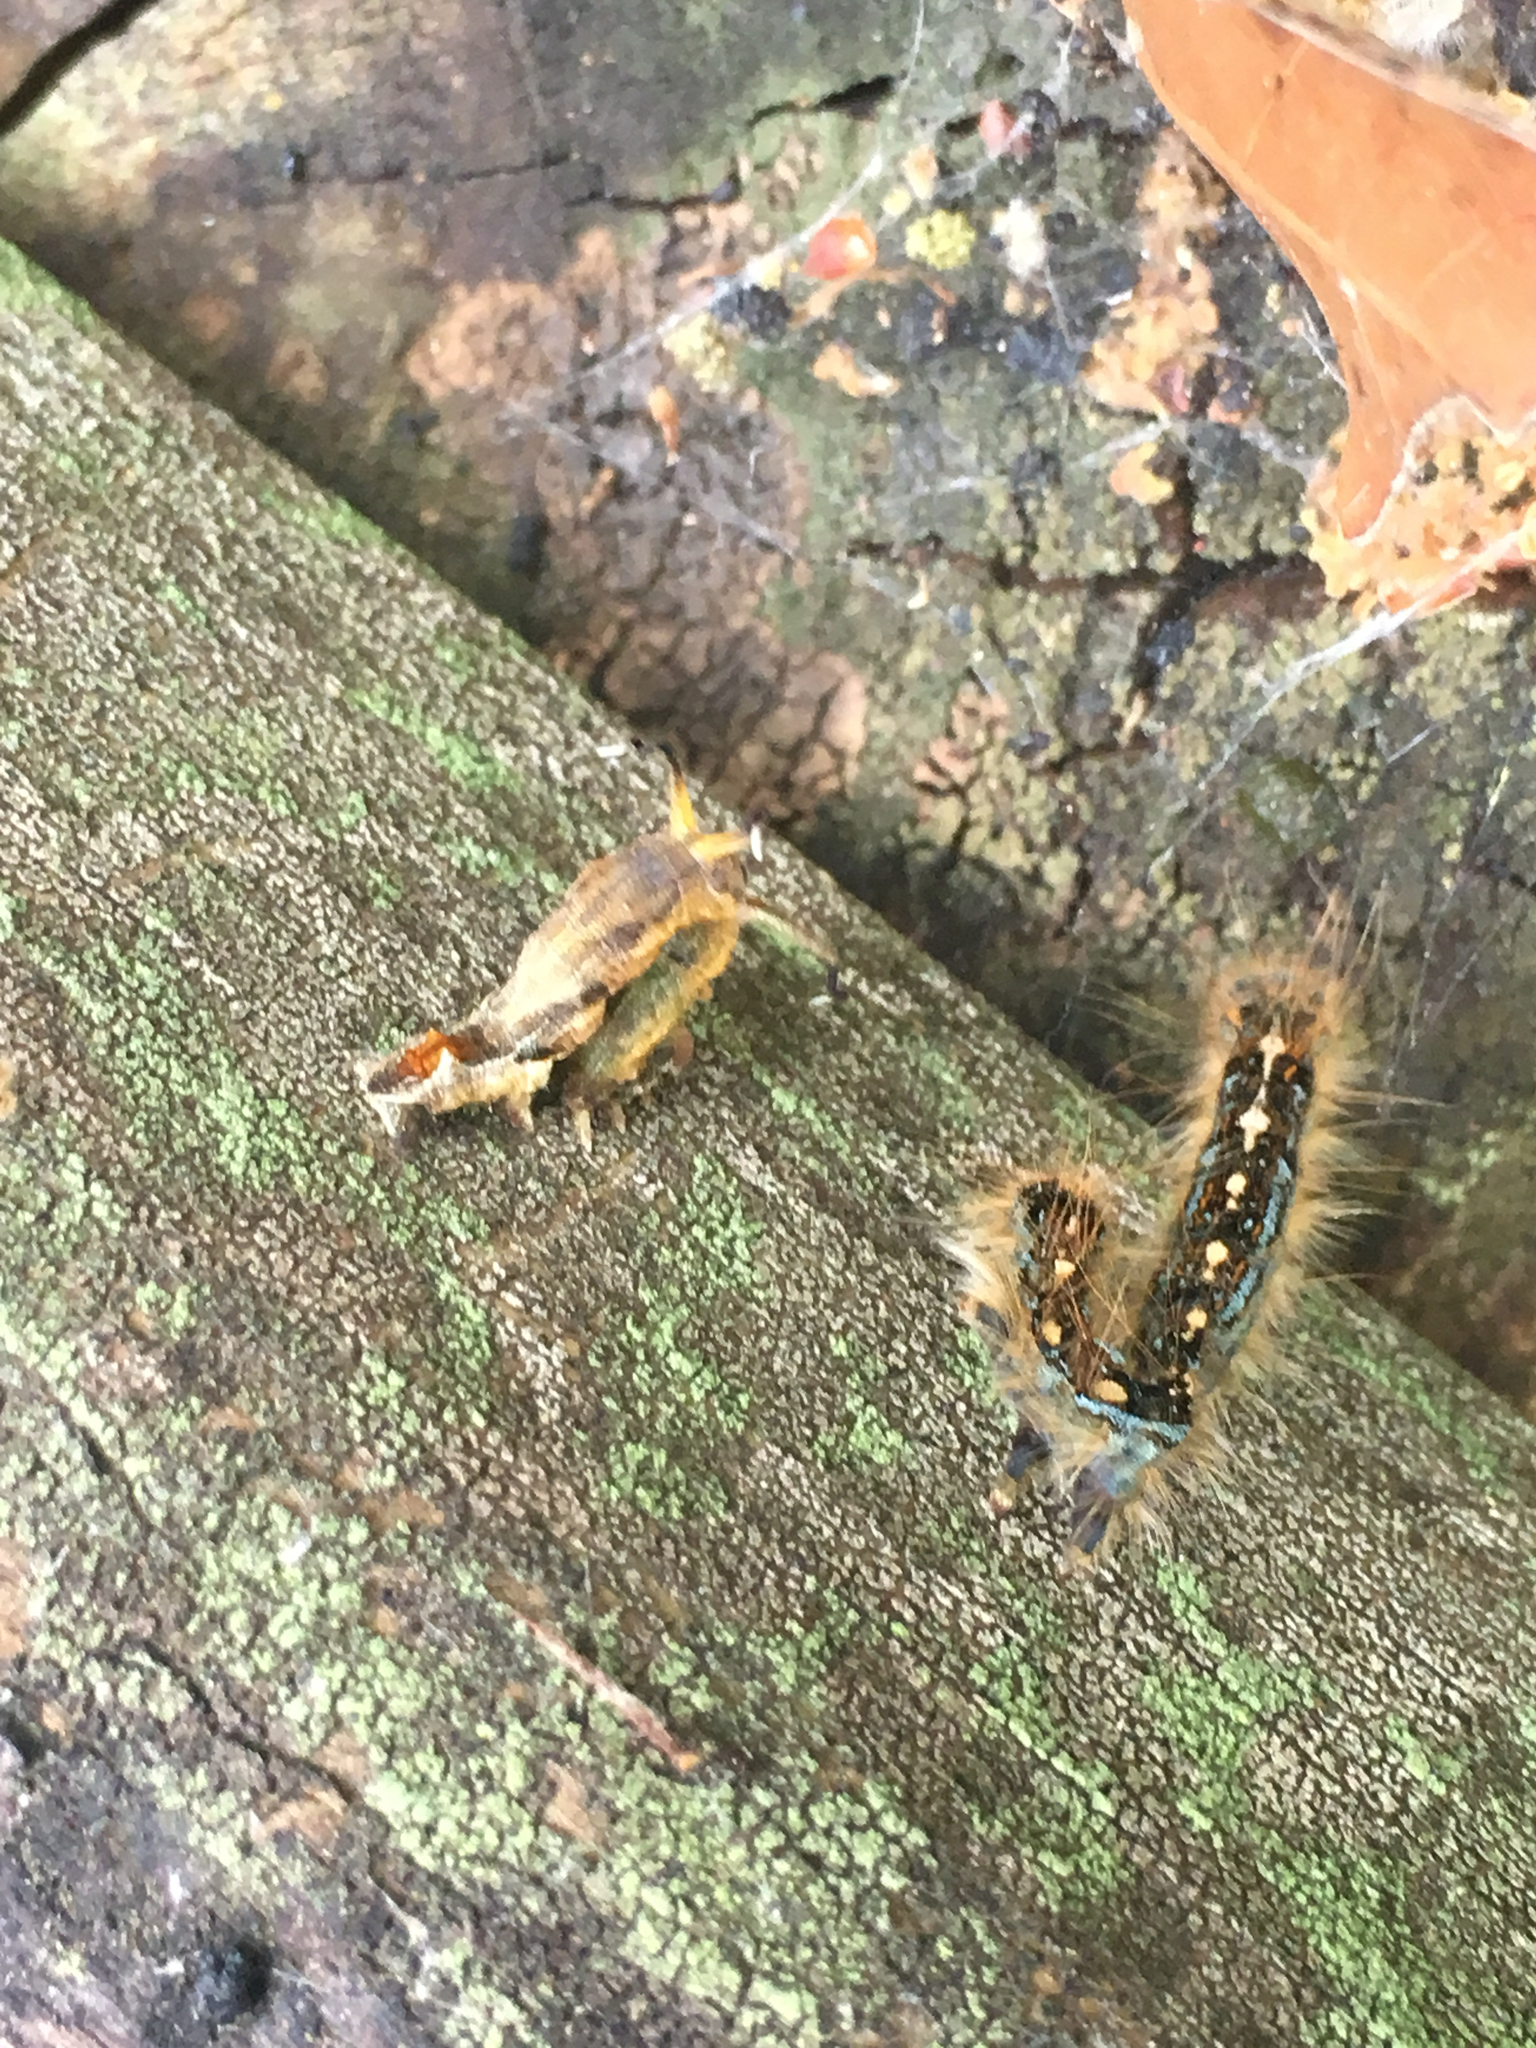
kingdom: Animalia
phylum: Arthropoda
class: Insecta
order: Lepidoptera
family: Lasiocampidae
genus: Malacosoma
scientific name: Malacosoma disstria
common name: Forest tent caterpillar
